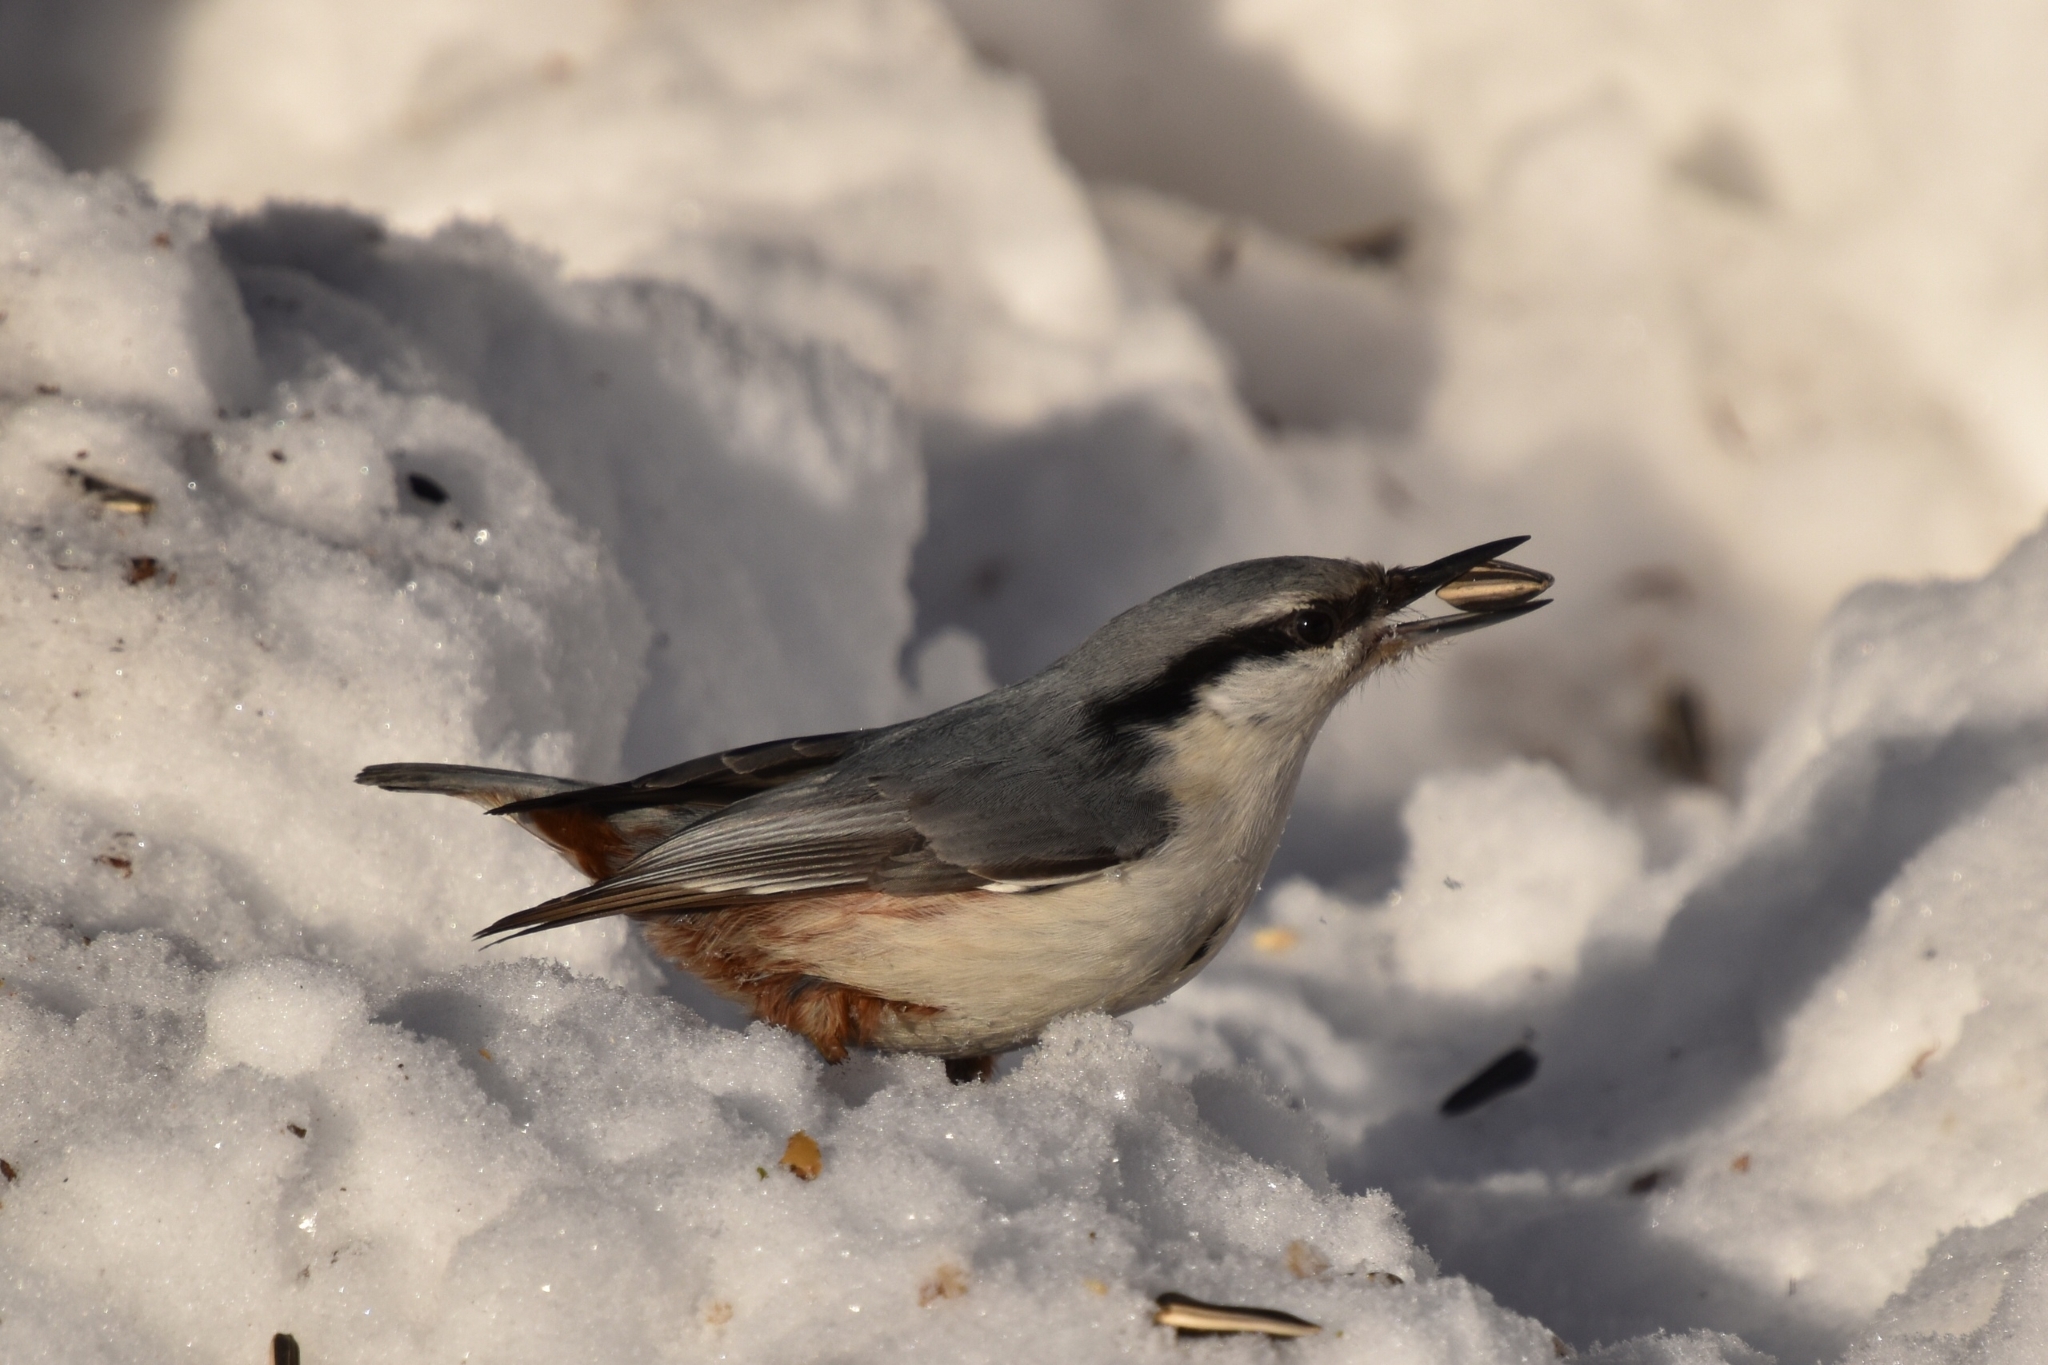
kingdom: Animalia
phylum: Chordata
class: Aves
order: Passeriformes
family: Sittidae
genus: Sitta
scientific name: Sitta europaea
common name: Eurasian nuthatch
